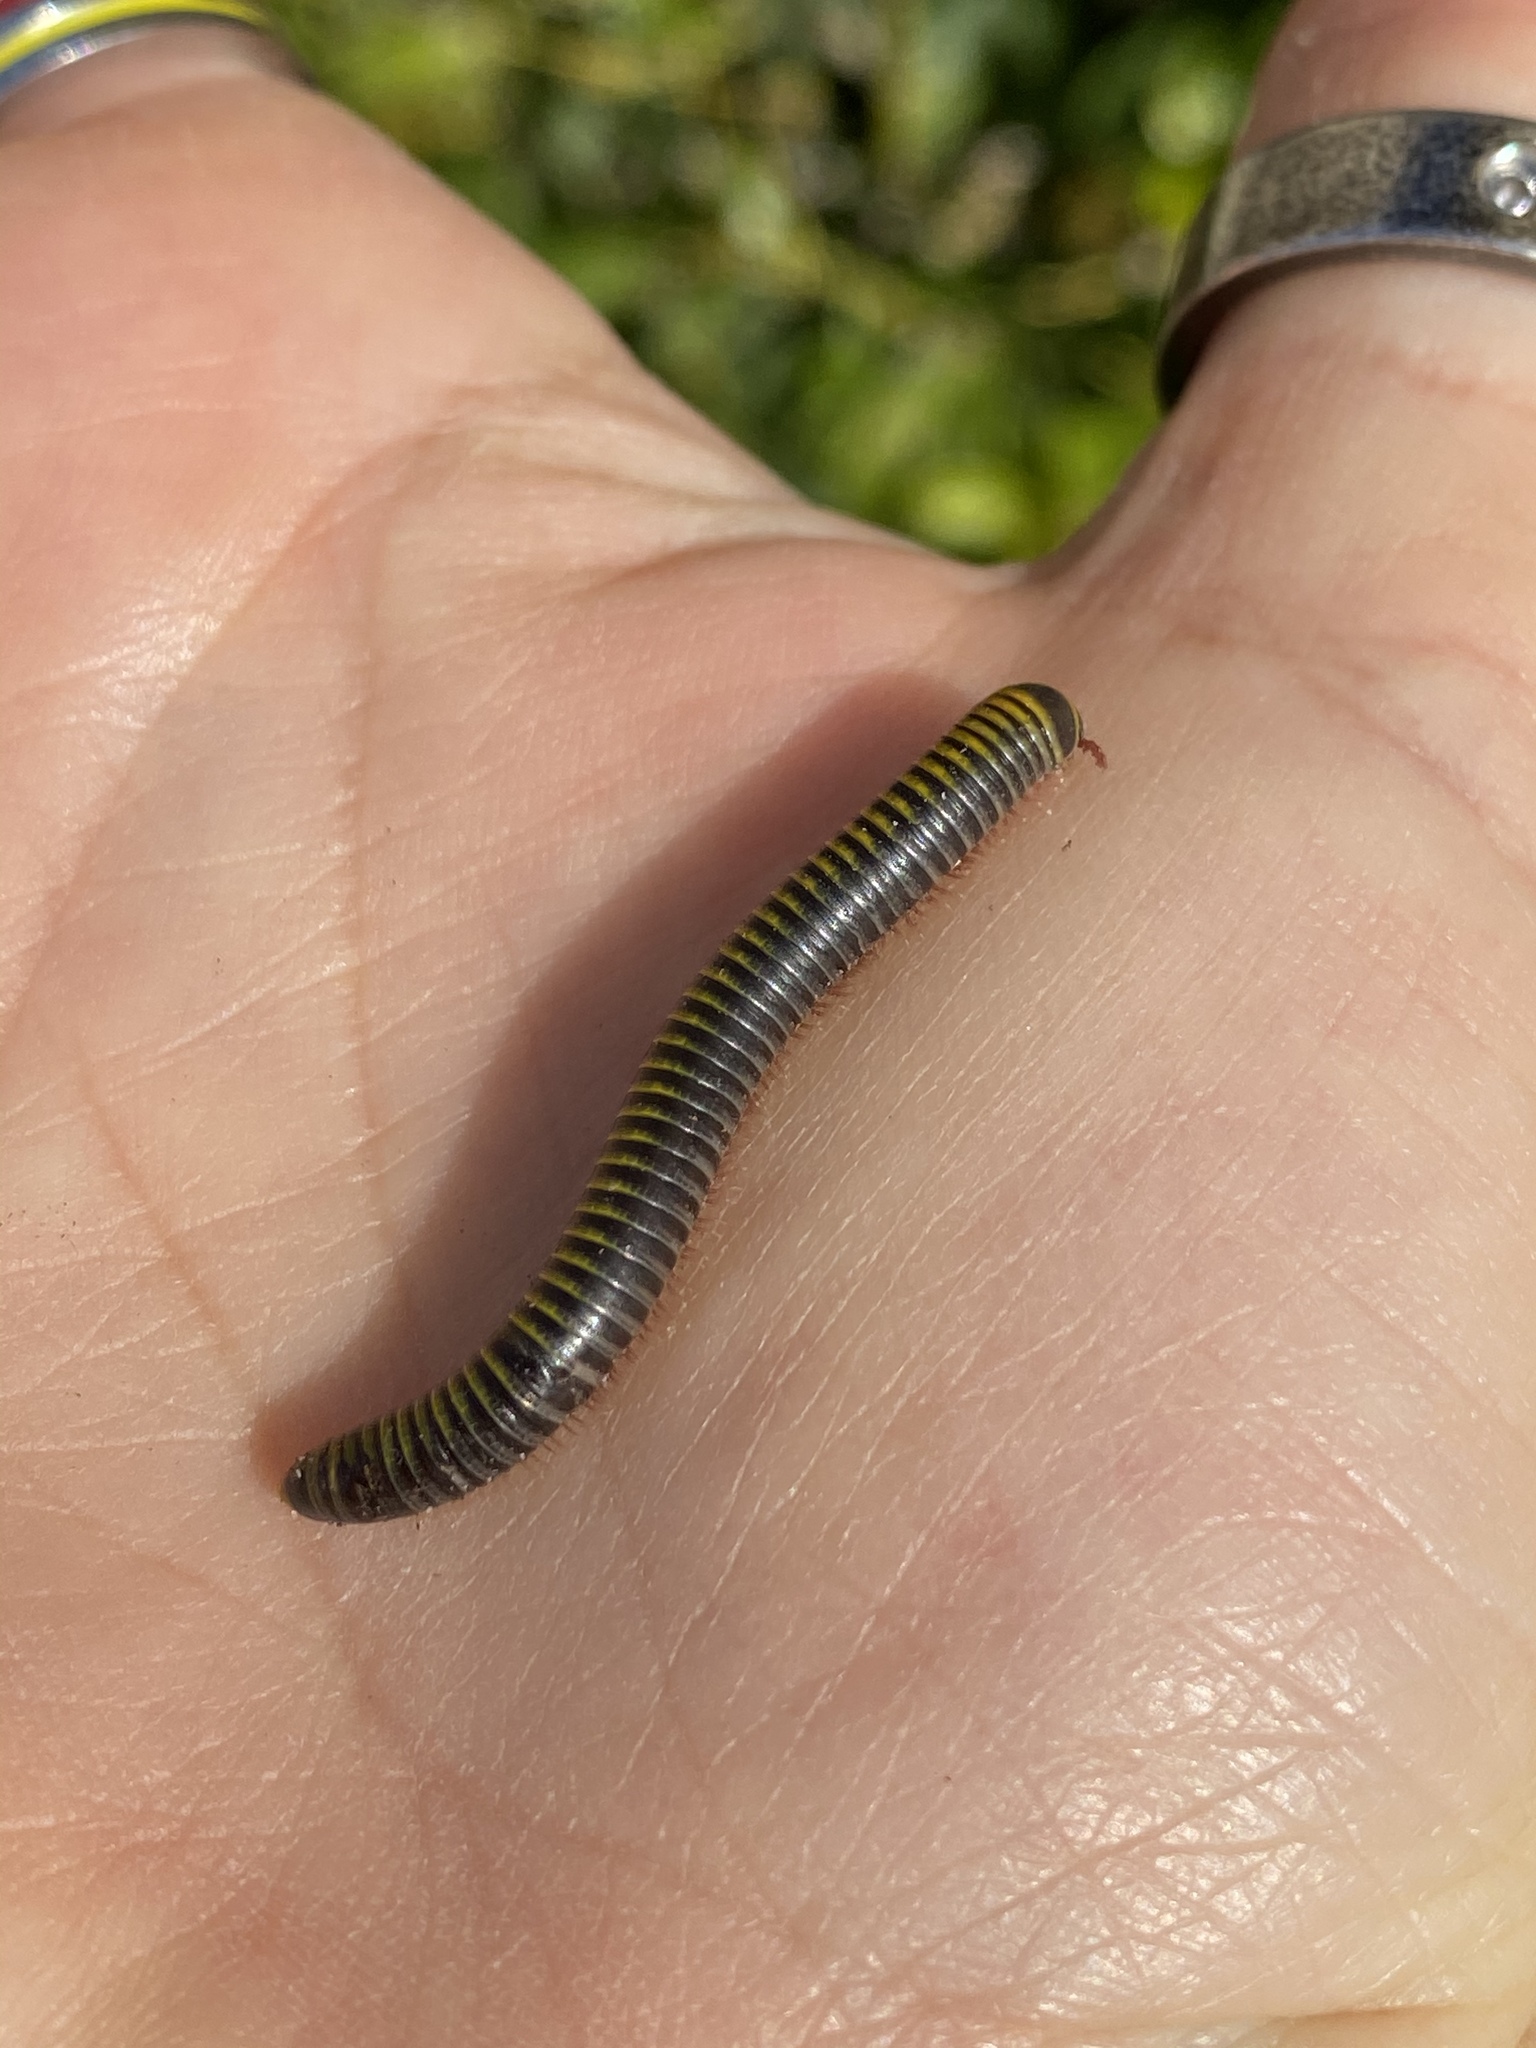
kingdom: Animalia
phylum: Arthropoda
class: Diplopoda
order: Spirobolida
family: Rhinocricidae
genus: Anadenobolus
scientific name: Anadenobolus monilicornis
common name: Caribbean millipede
